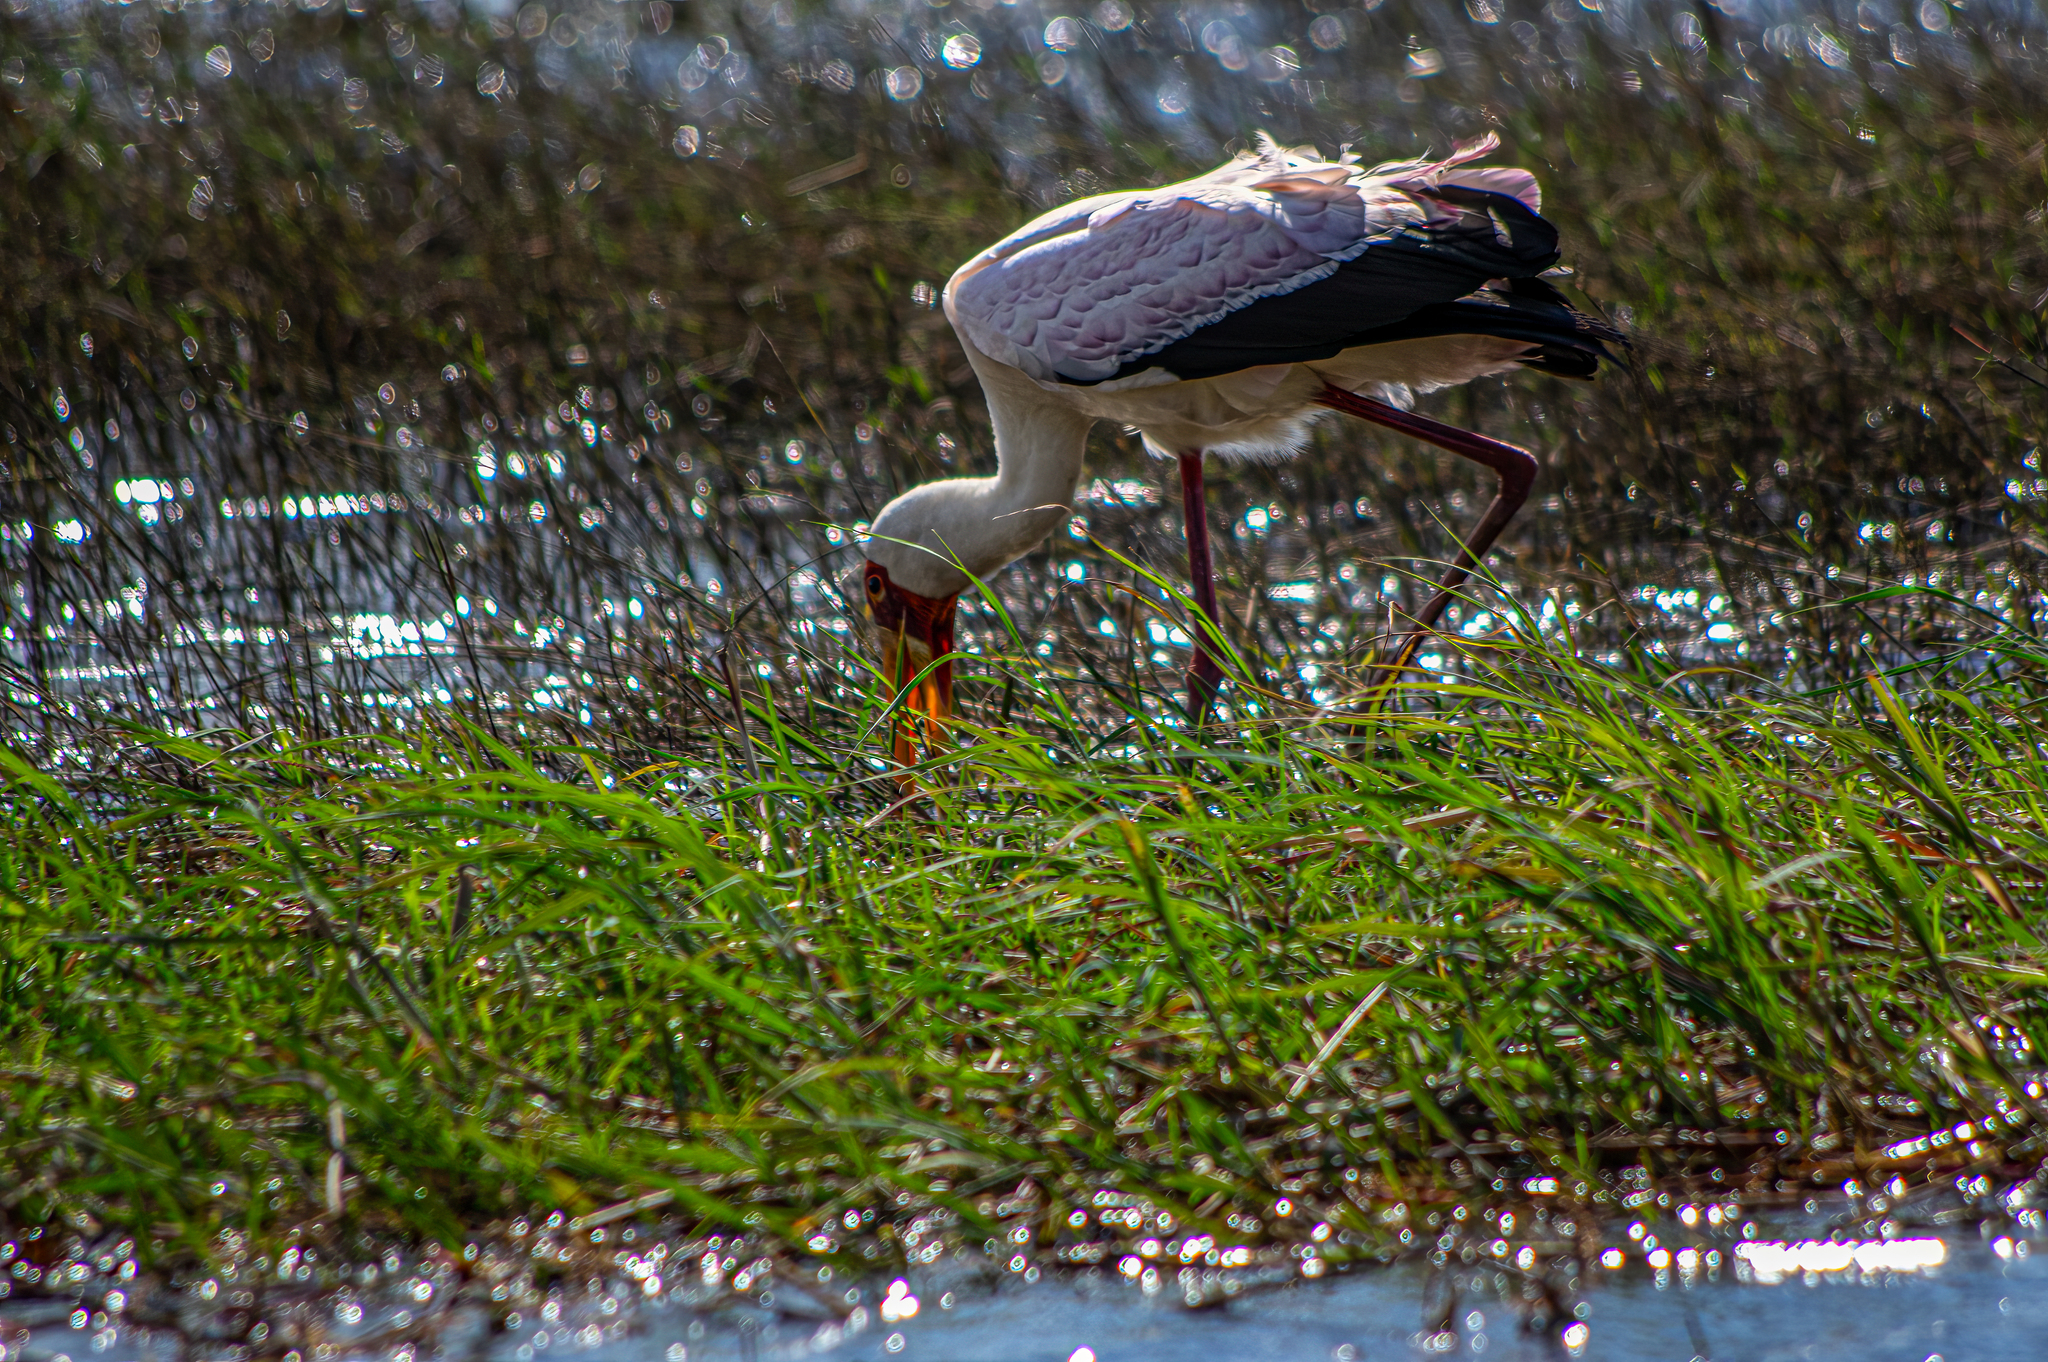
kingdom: Animalia
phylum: Chordata
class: Aves
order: Ciconiiformes
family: Ciconiidae
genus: Mycteria
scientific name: Mycteria ibis
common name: Yellow-billed stork
